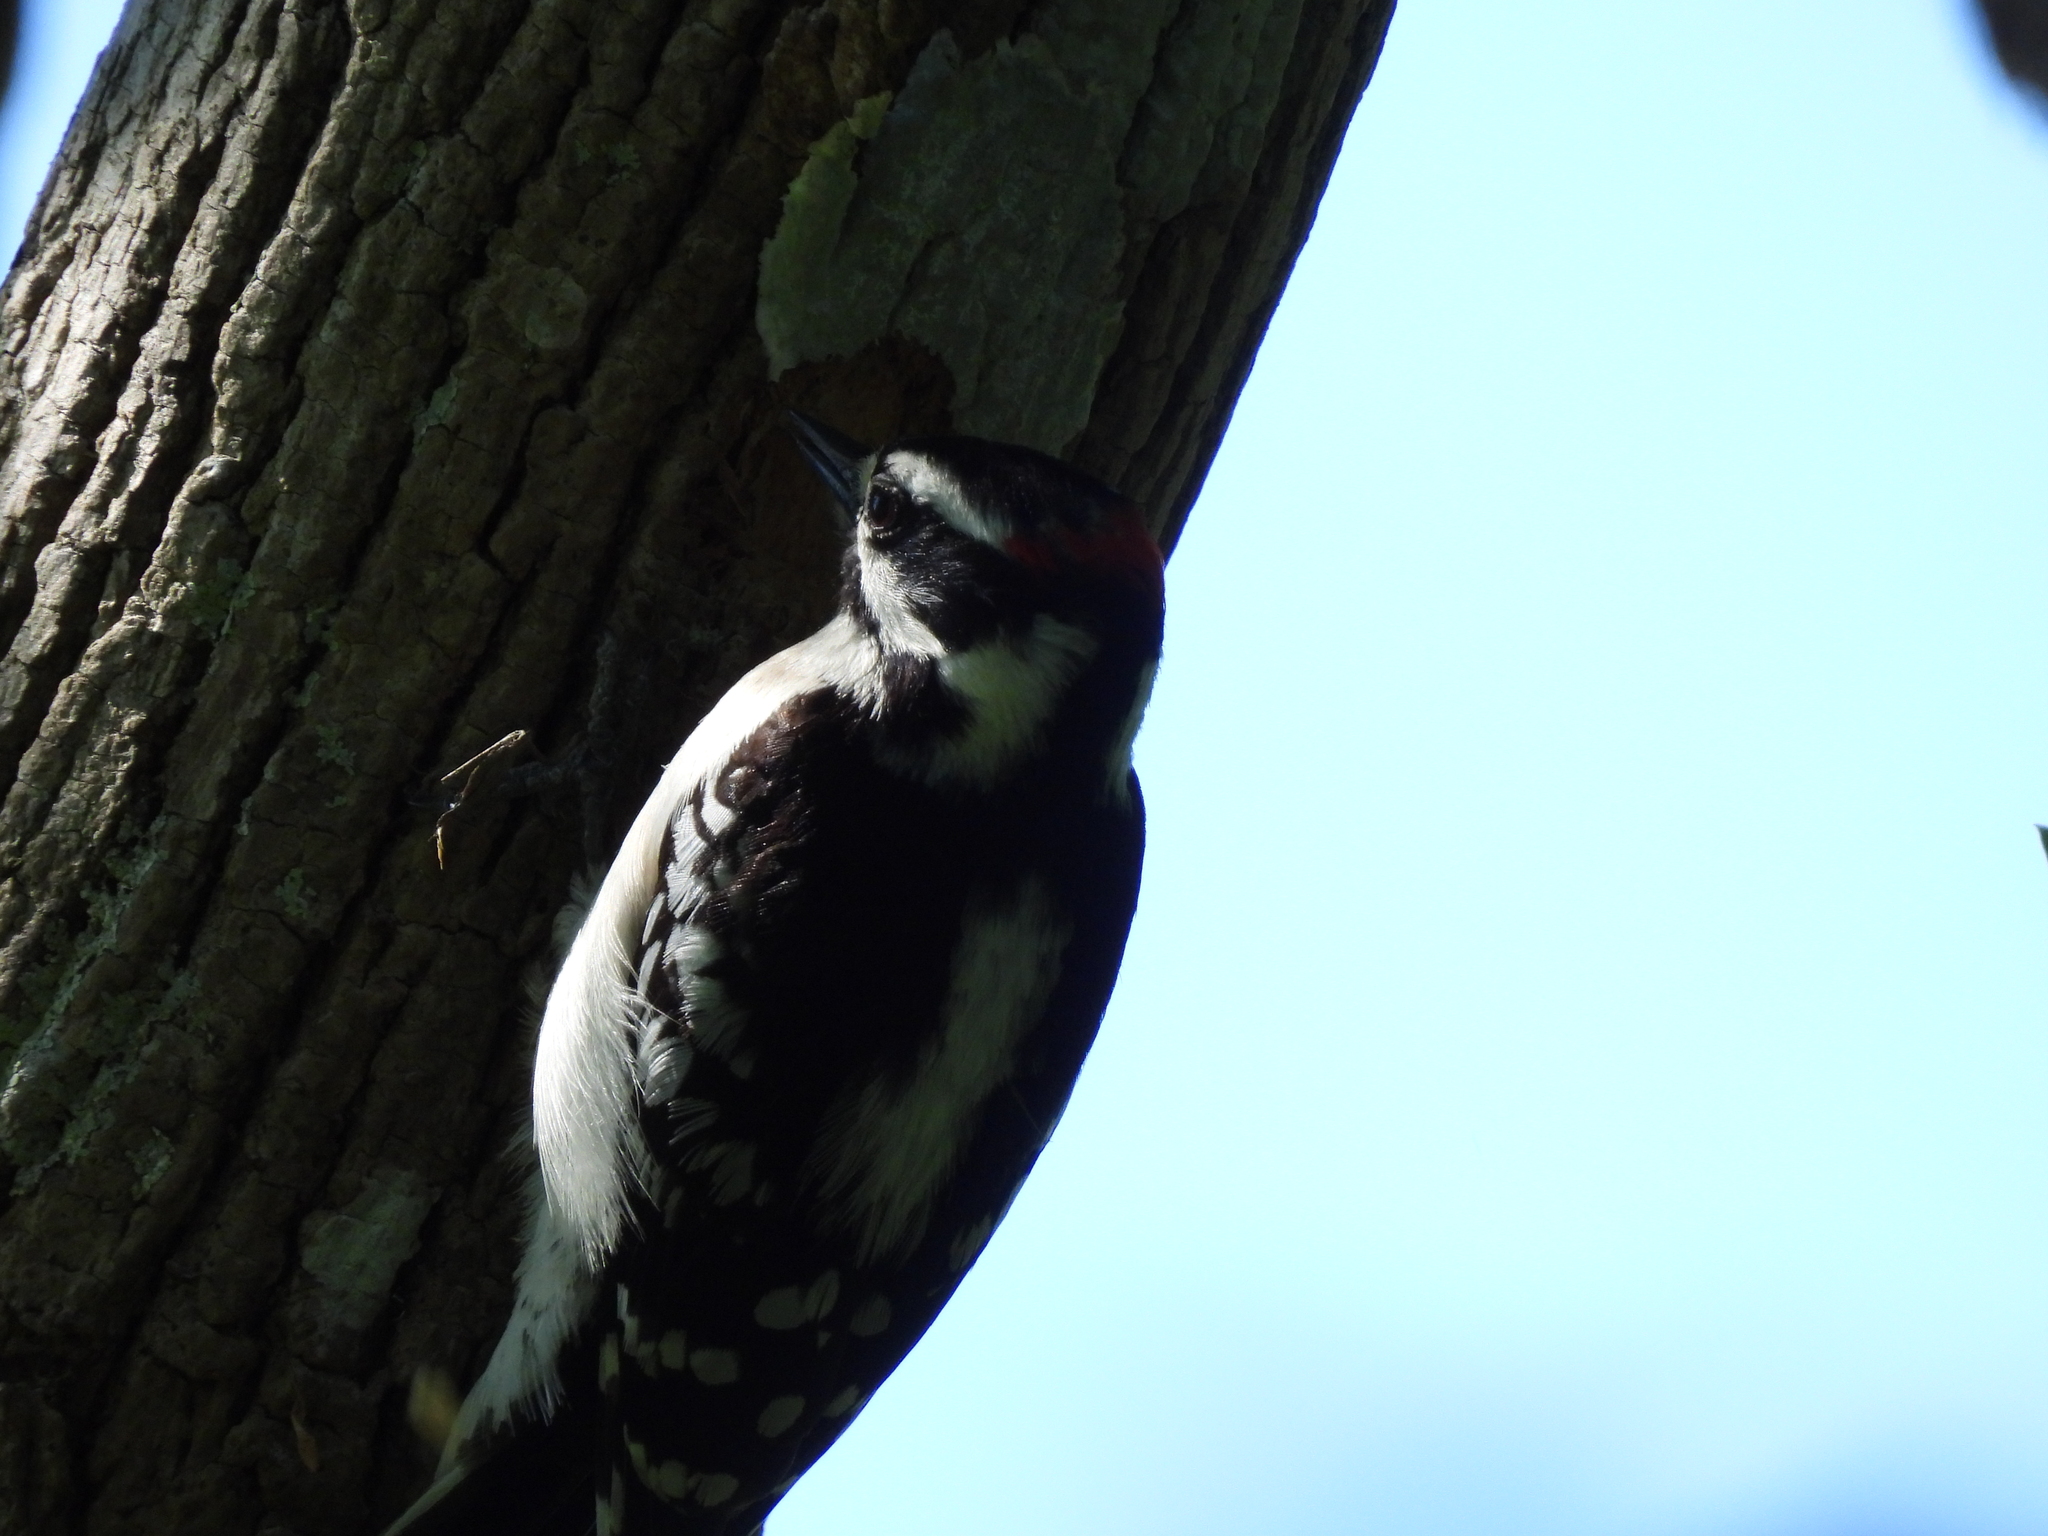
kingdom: Animalia
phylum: Chordata
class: Aves
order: Piciformes
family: Picidae
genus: Dryobates
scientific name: Dryobates pubescens
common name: Downy woodpecker
